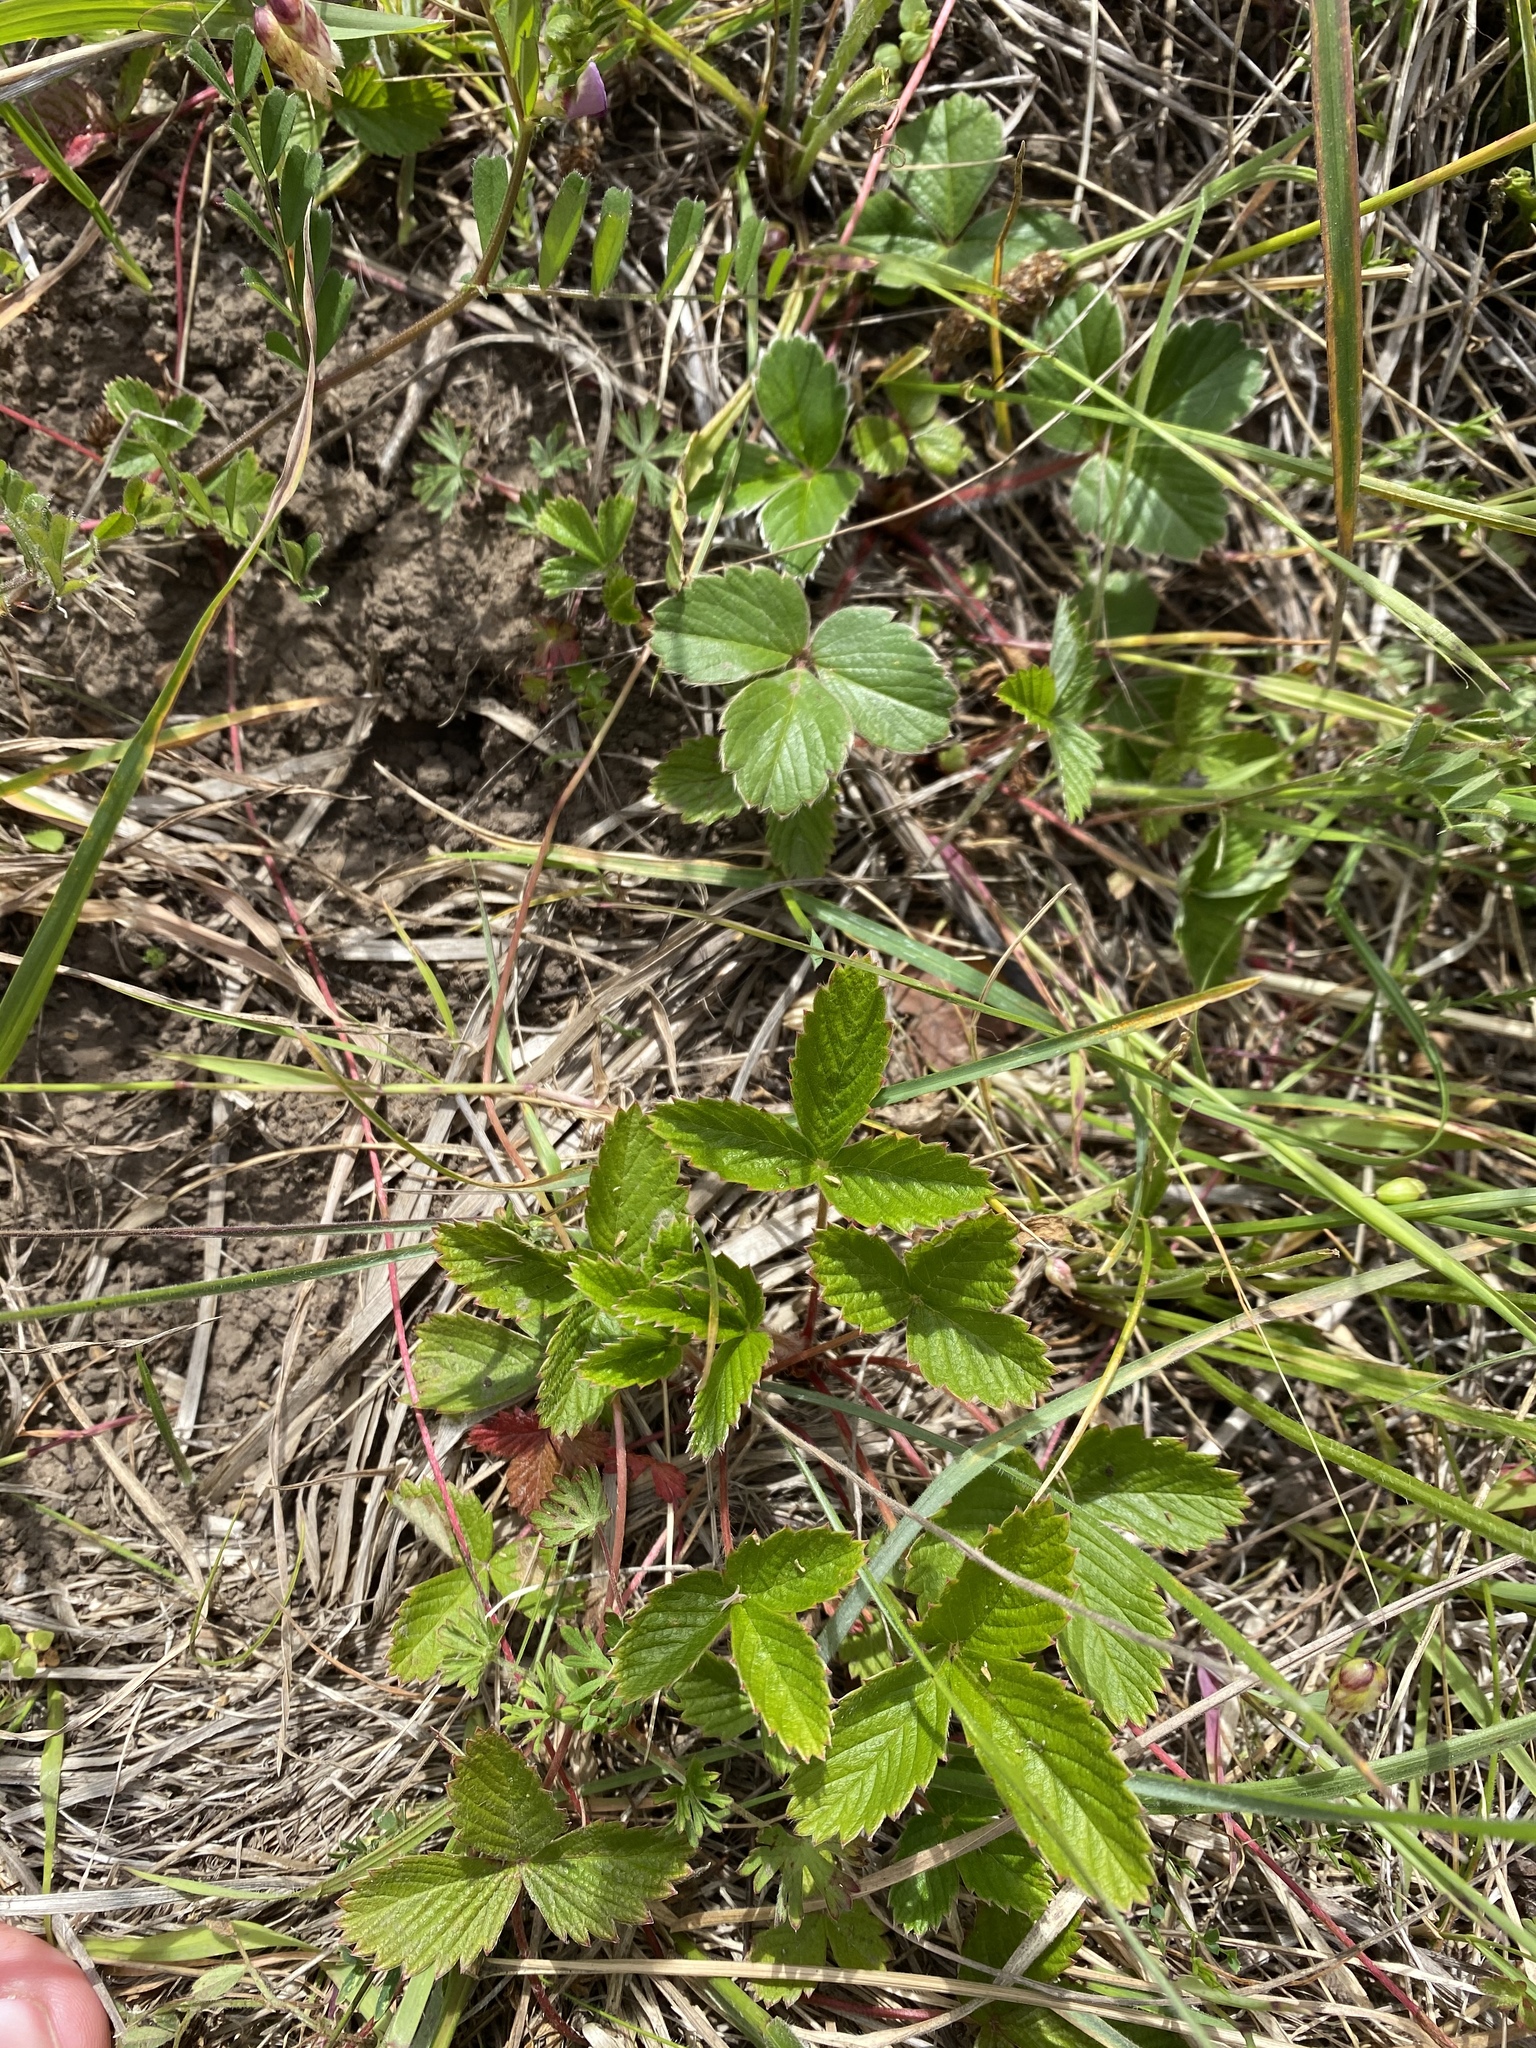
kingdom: Plantae
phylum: Tracheophyta
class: Magnoliopsida
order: Rosales
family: Rosaceae
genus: Fragaria
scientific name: Fragaria vesca
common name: Wild strawberry
